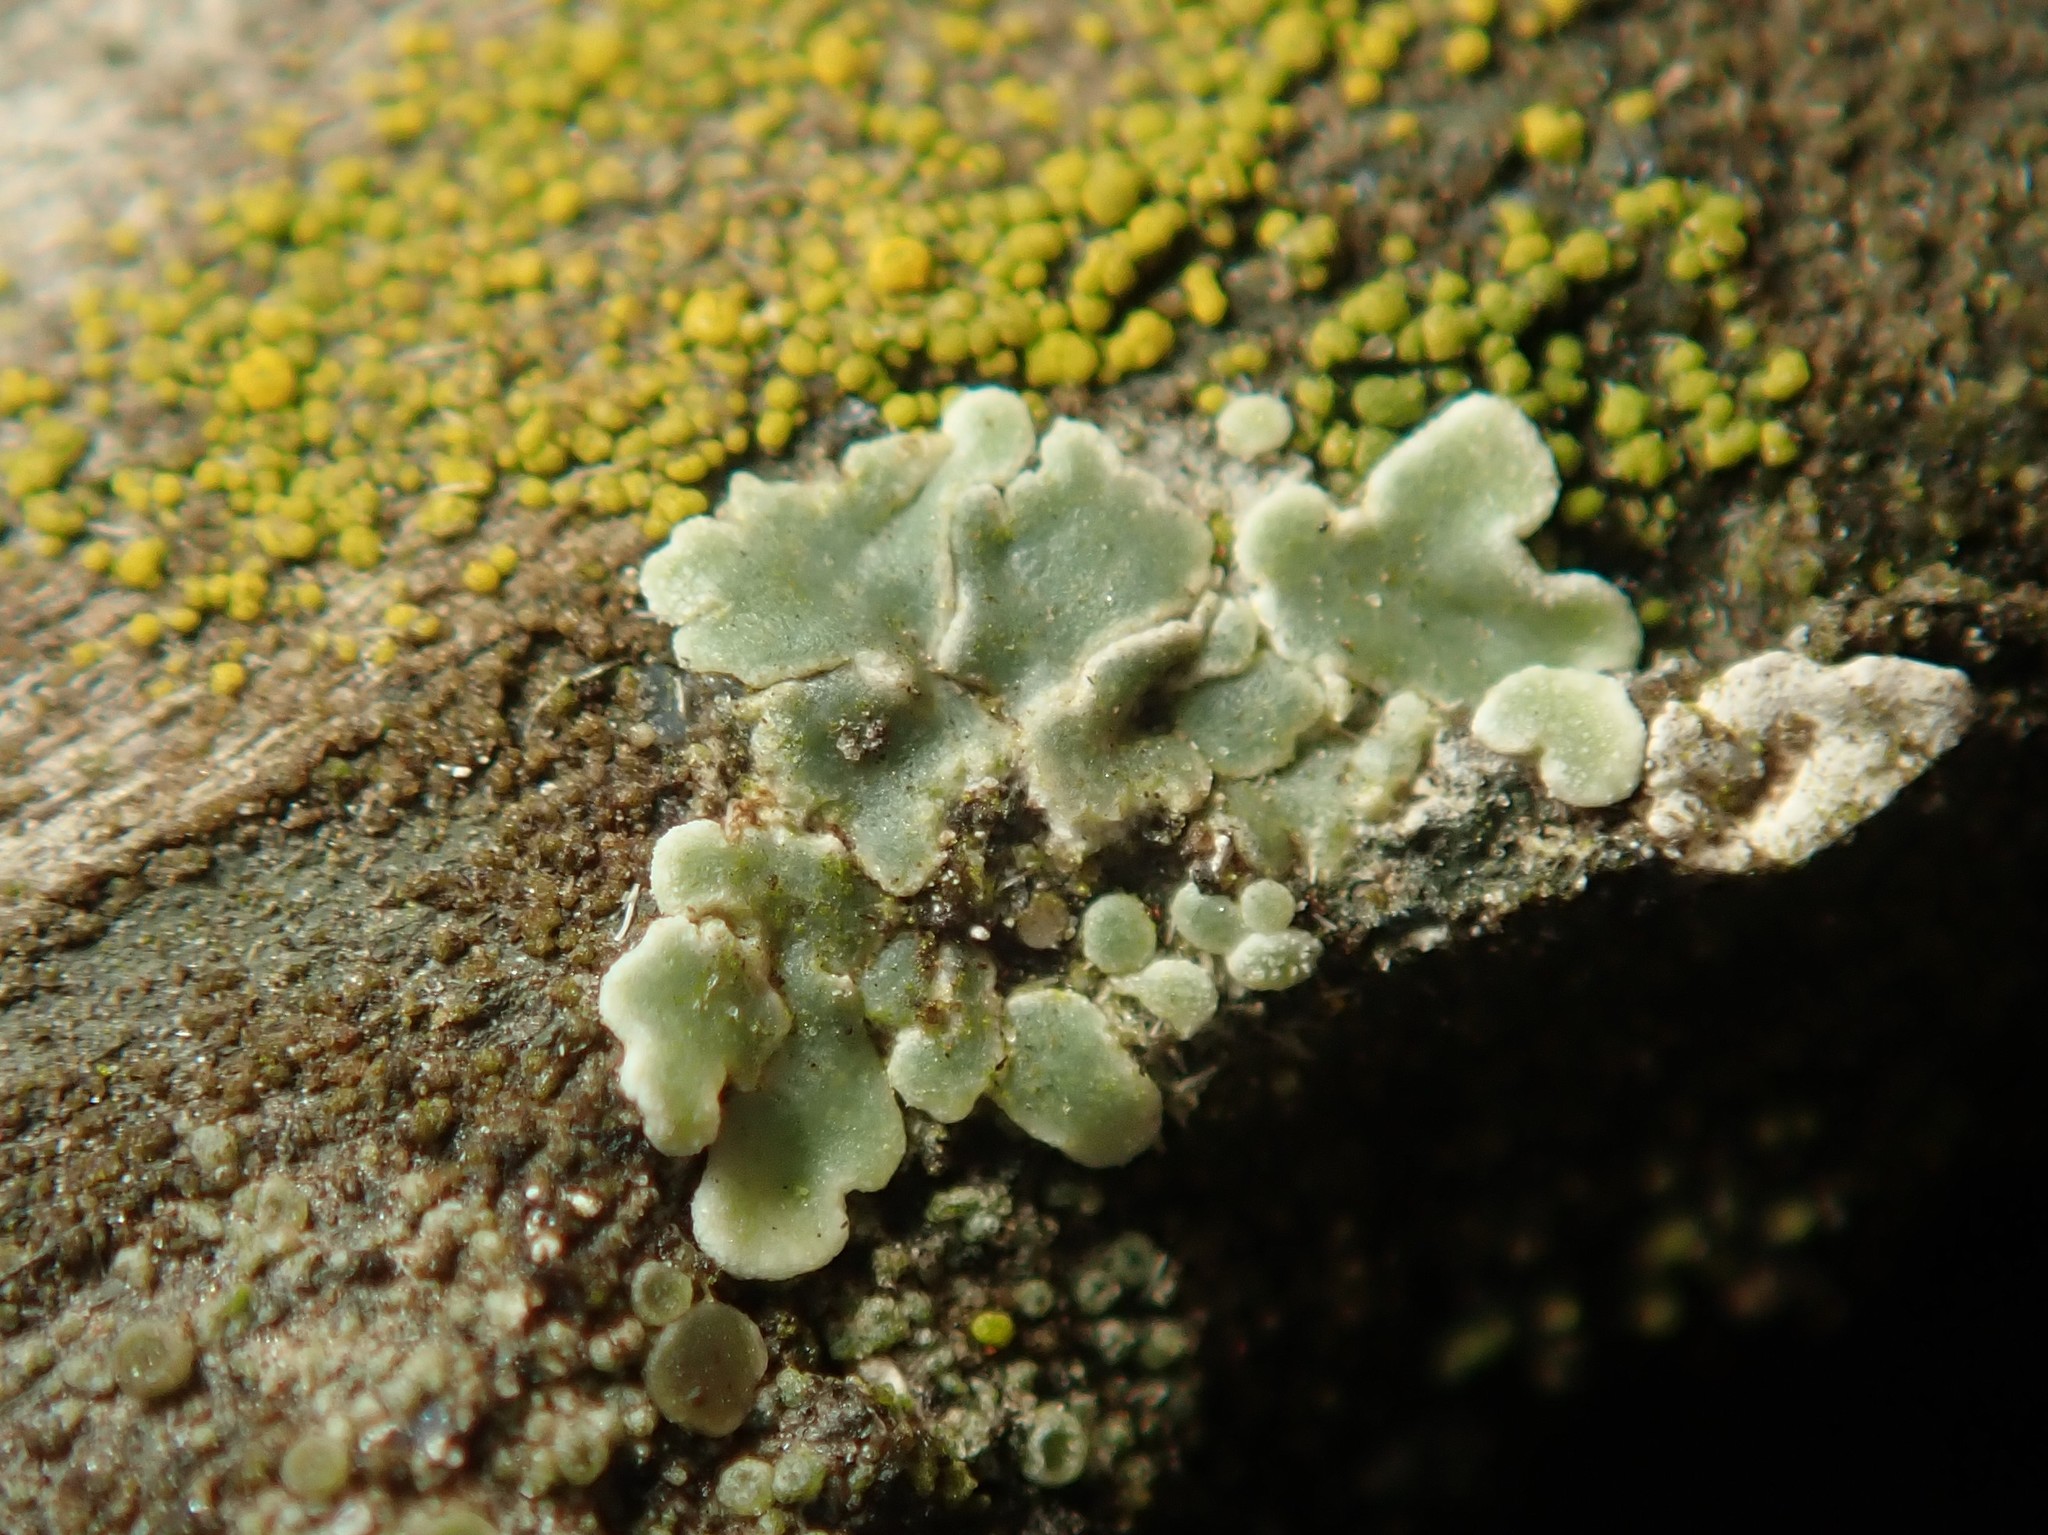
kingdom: Fungi
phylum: Ascomycota
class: Lecanoromycetes
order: Lecanorales
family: Lecanoraceae
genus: Protoparmeliopsis
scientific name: Protoparmeliopsis muralis
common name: Stonewall rim lichen
